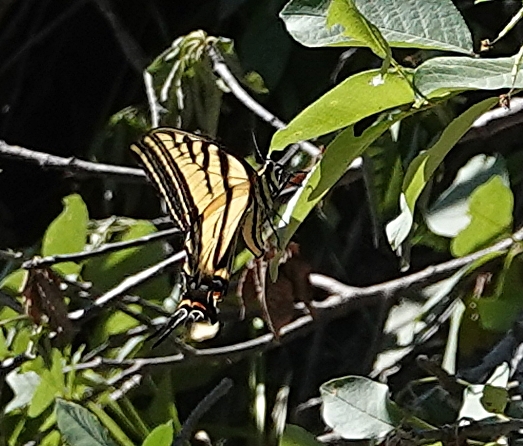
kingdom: Animalia
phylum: Arthropoda
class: Insecta
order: Lepidoptera
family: Papilionidae
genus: Papilio
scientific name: Papilio multicaudata
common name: Two-tailed tiger swallowtail
